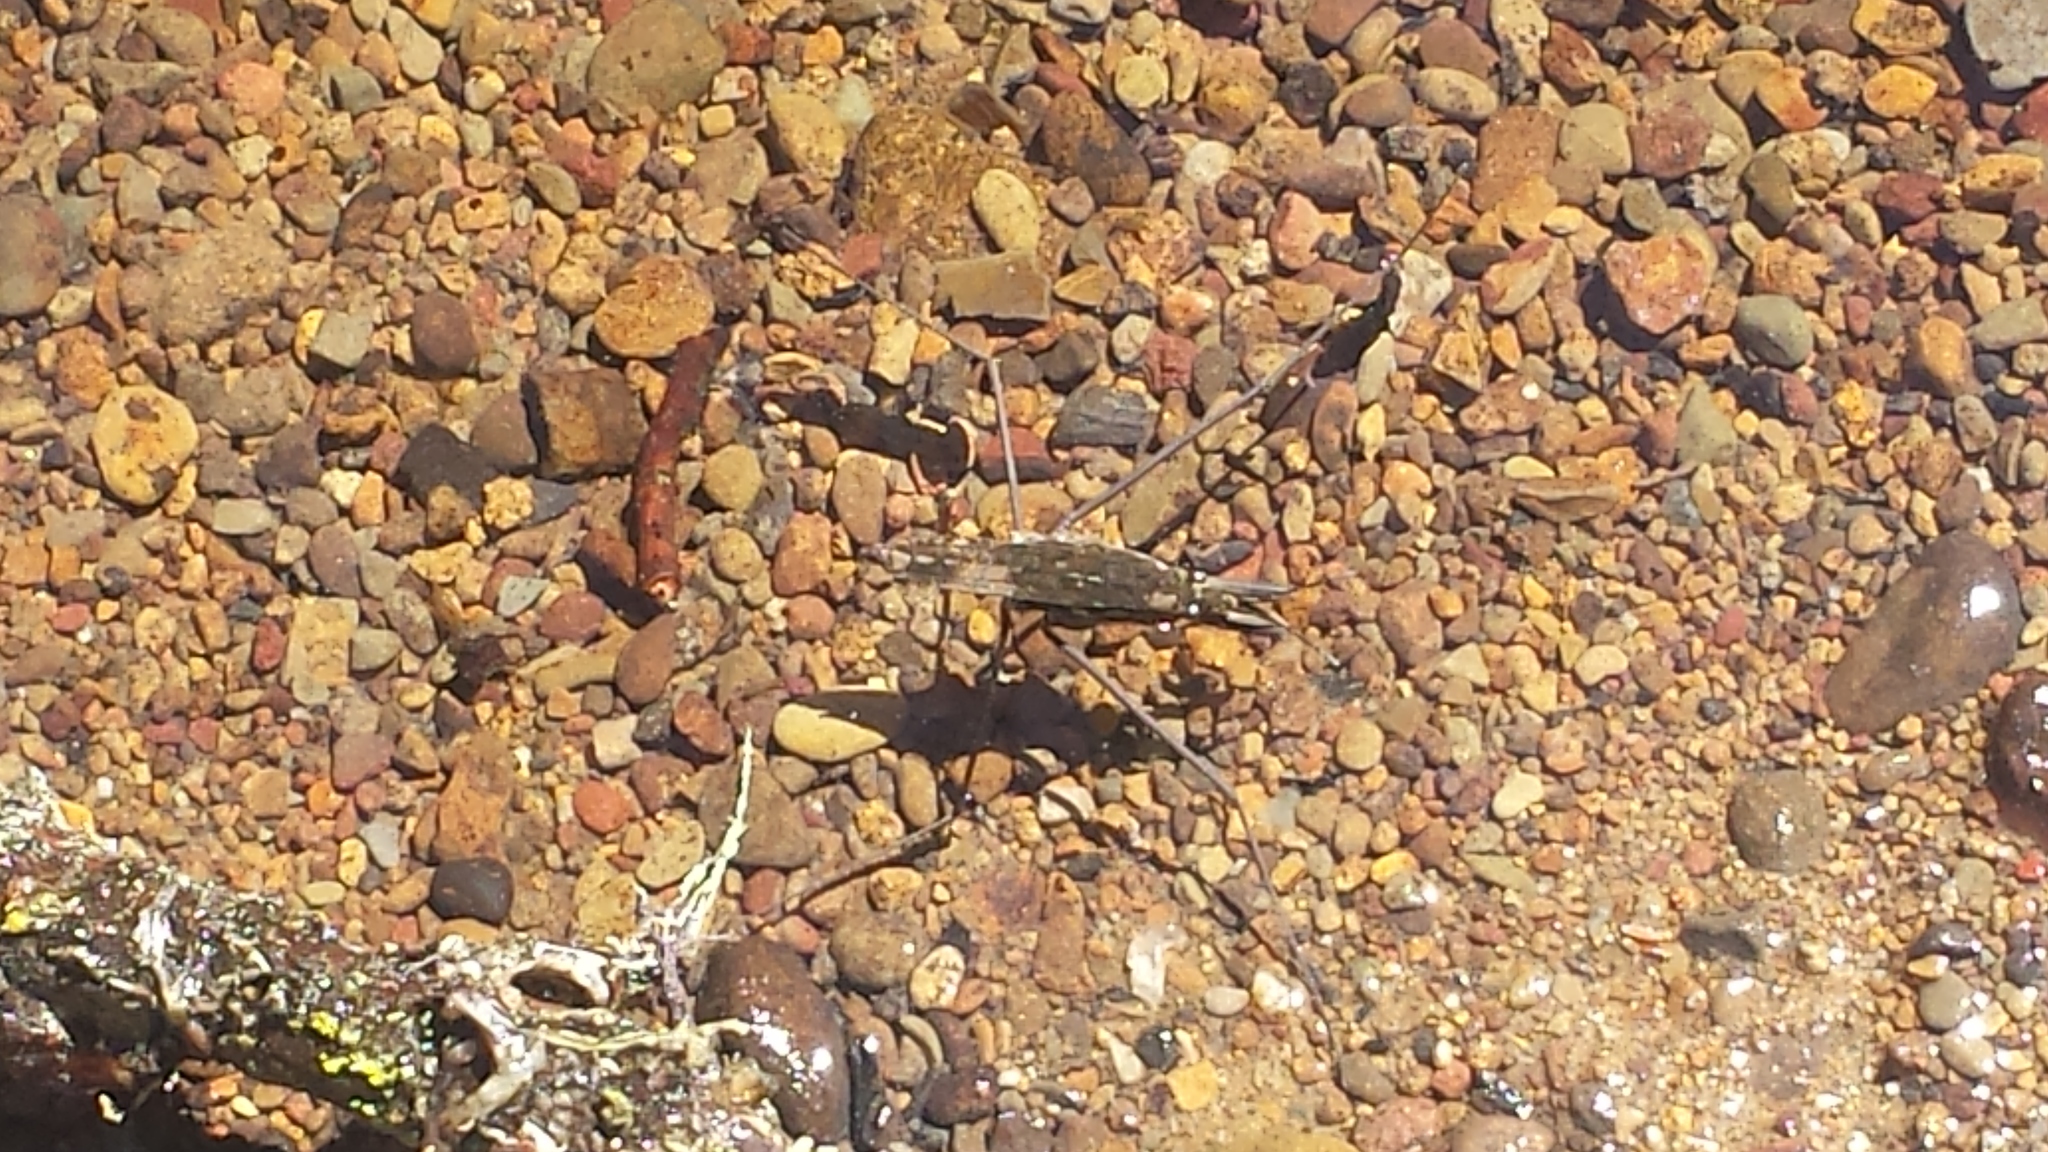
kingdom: Animalia
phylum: Arthropoda
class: Insecta
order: Hemiptera
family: Gerridae
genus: Aquarius
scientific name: Aquarius remigis
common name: Common water strider
